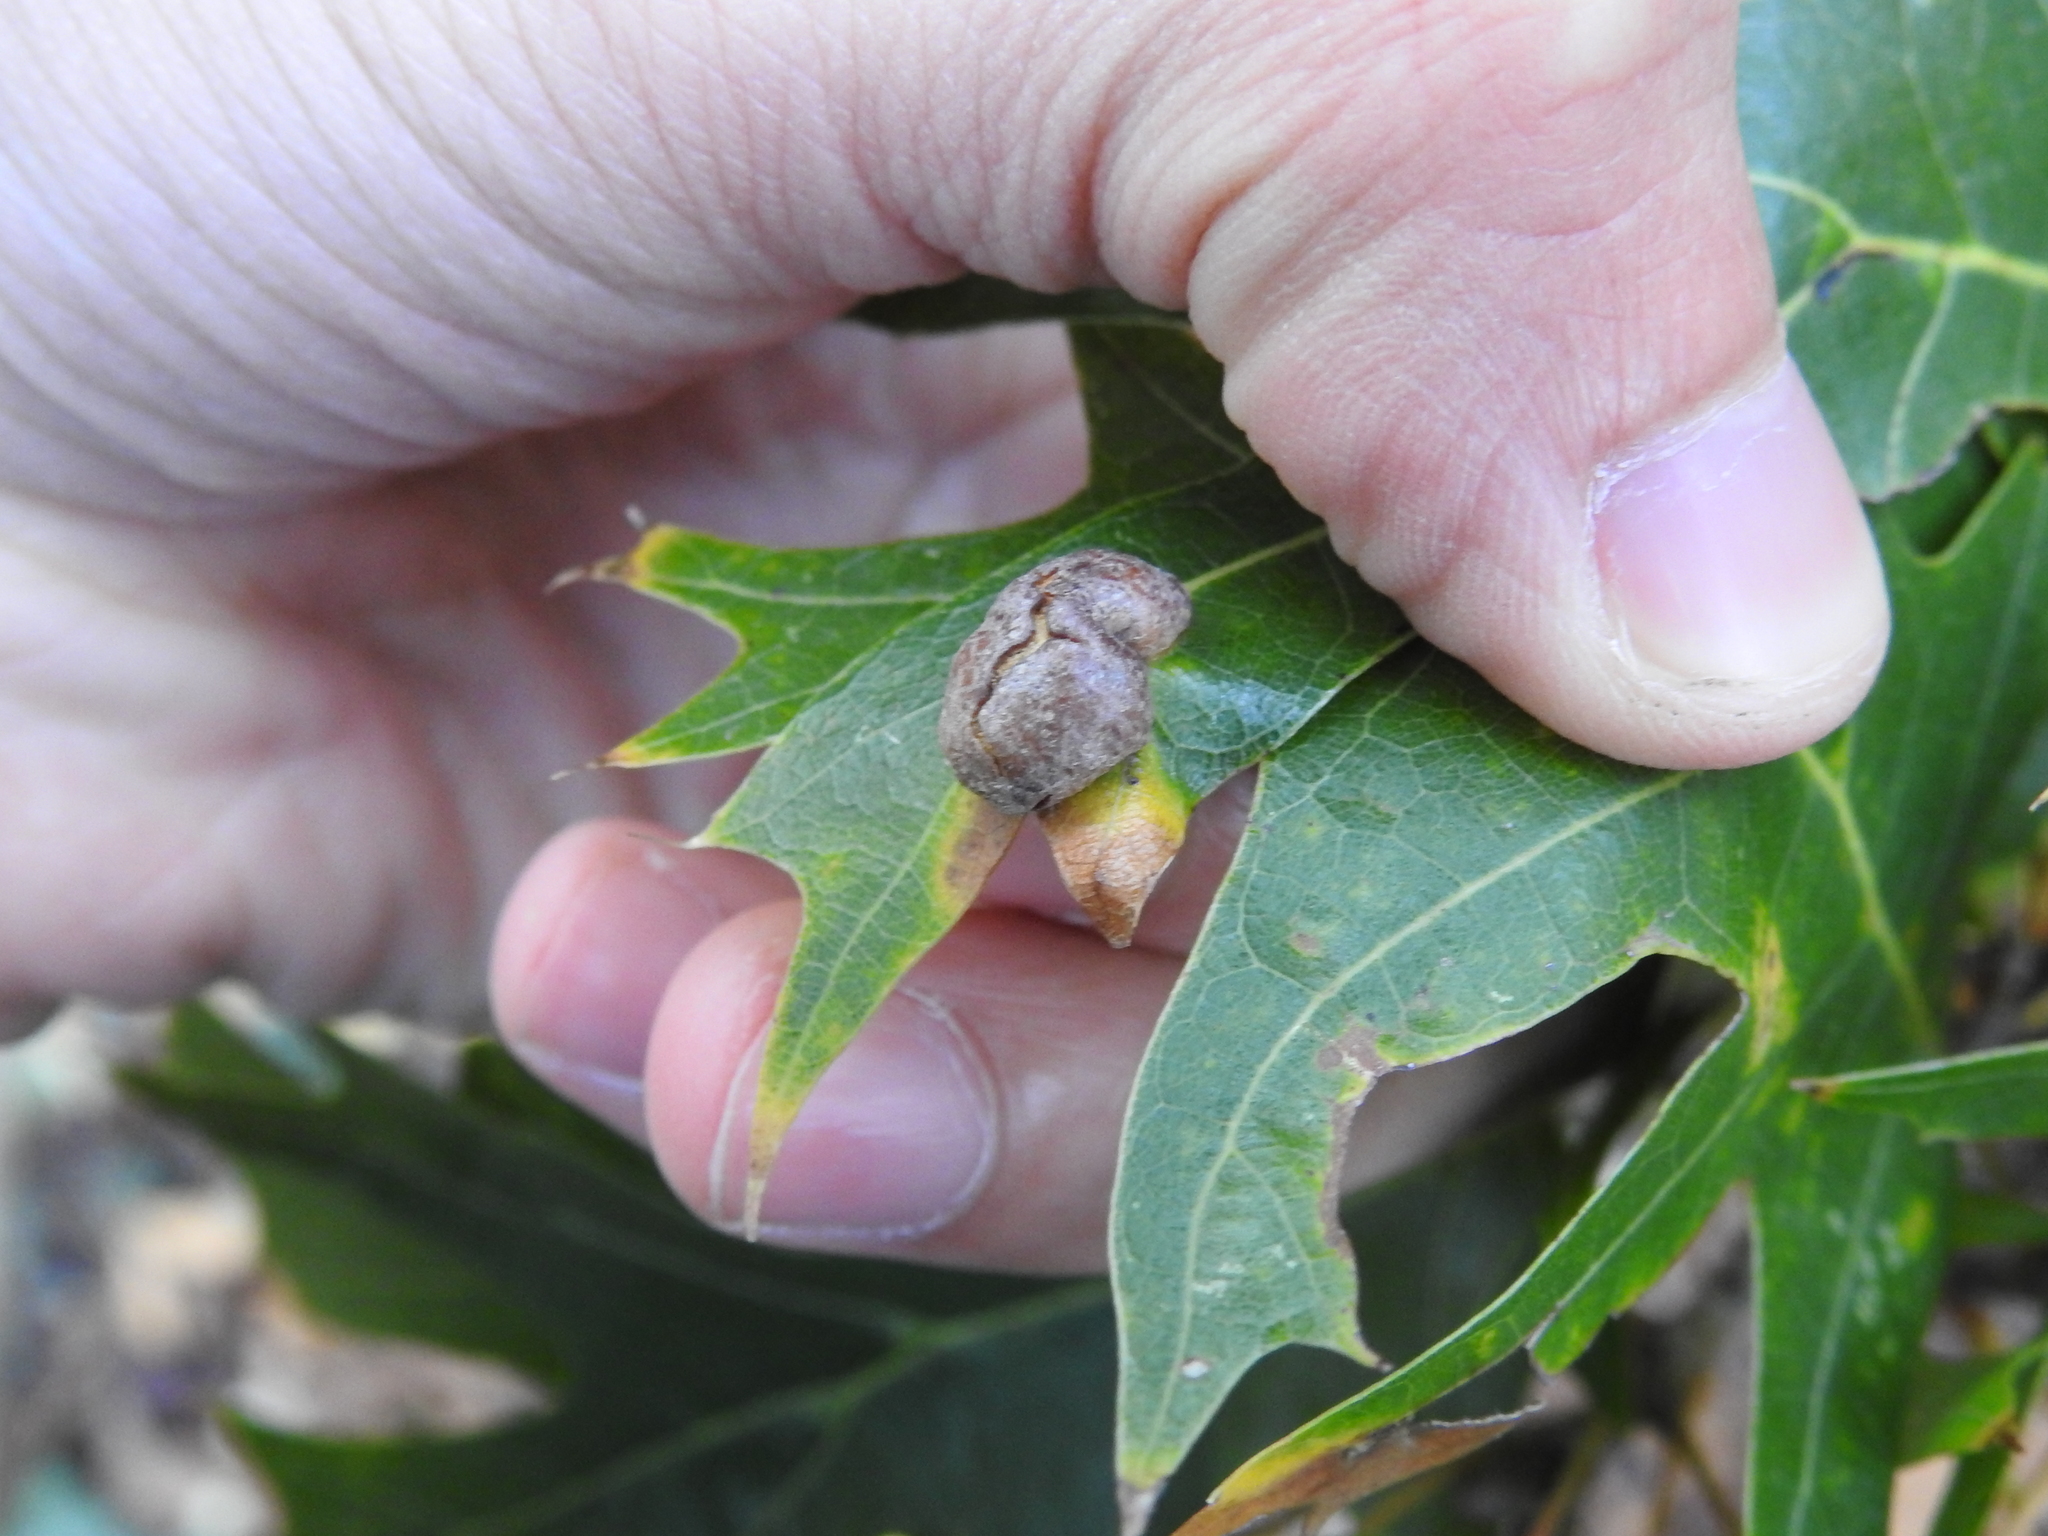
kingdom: Animalia
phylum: Arthropoda
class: Insecta
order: Diptera
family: Cecidomyiidae
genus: Polystepha
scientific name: Polystepha pilulae
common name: Oak leaf gall midge
